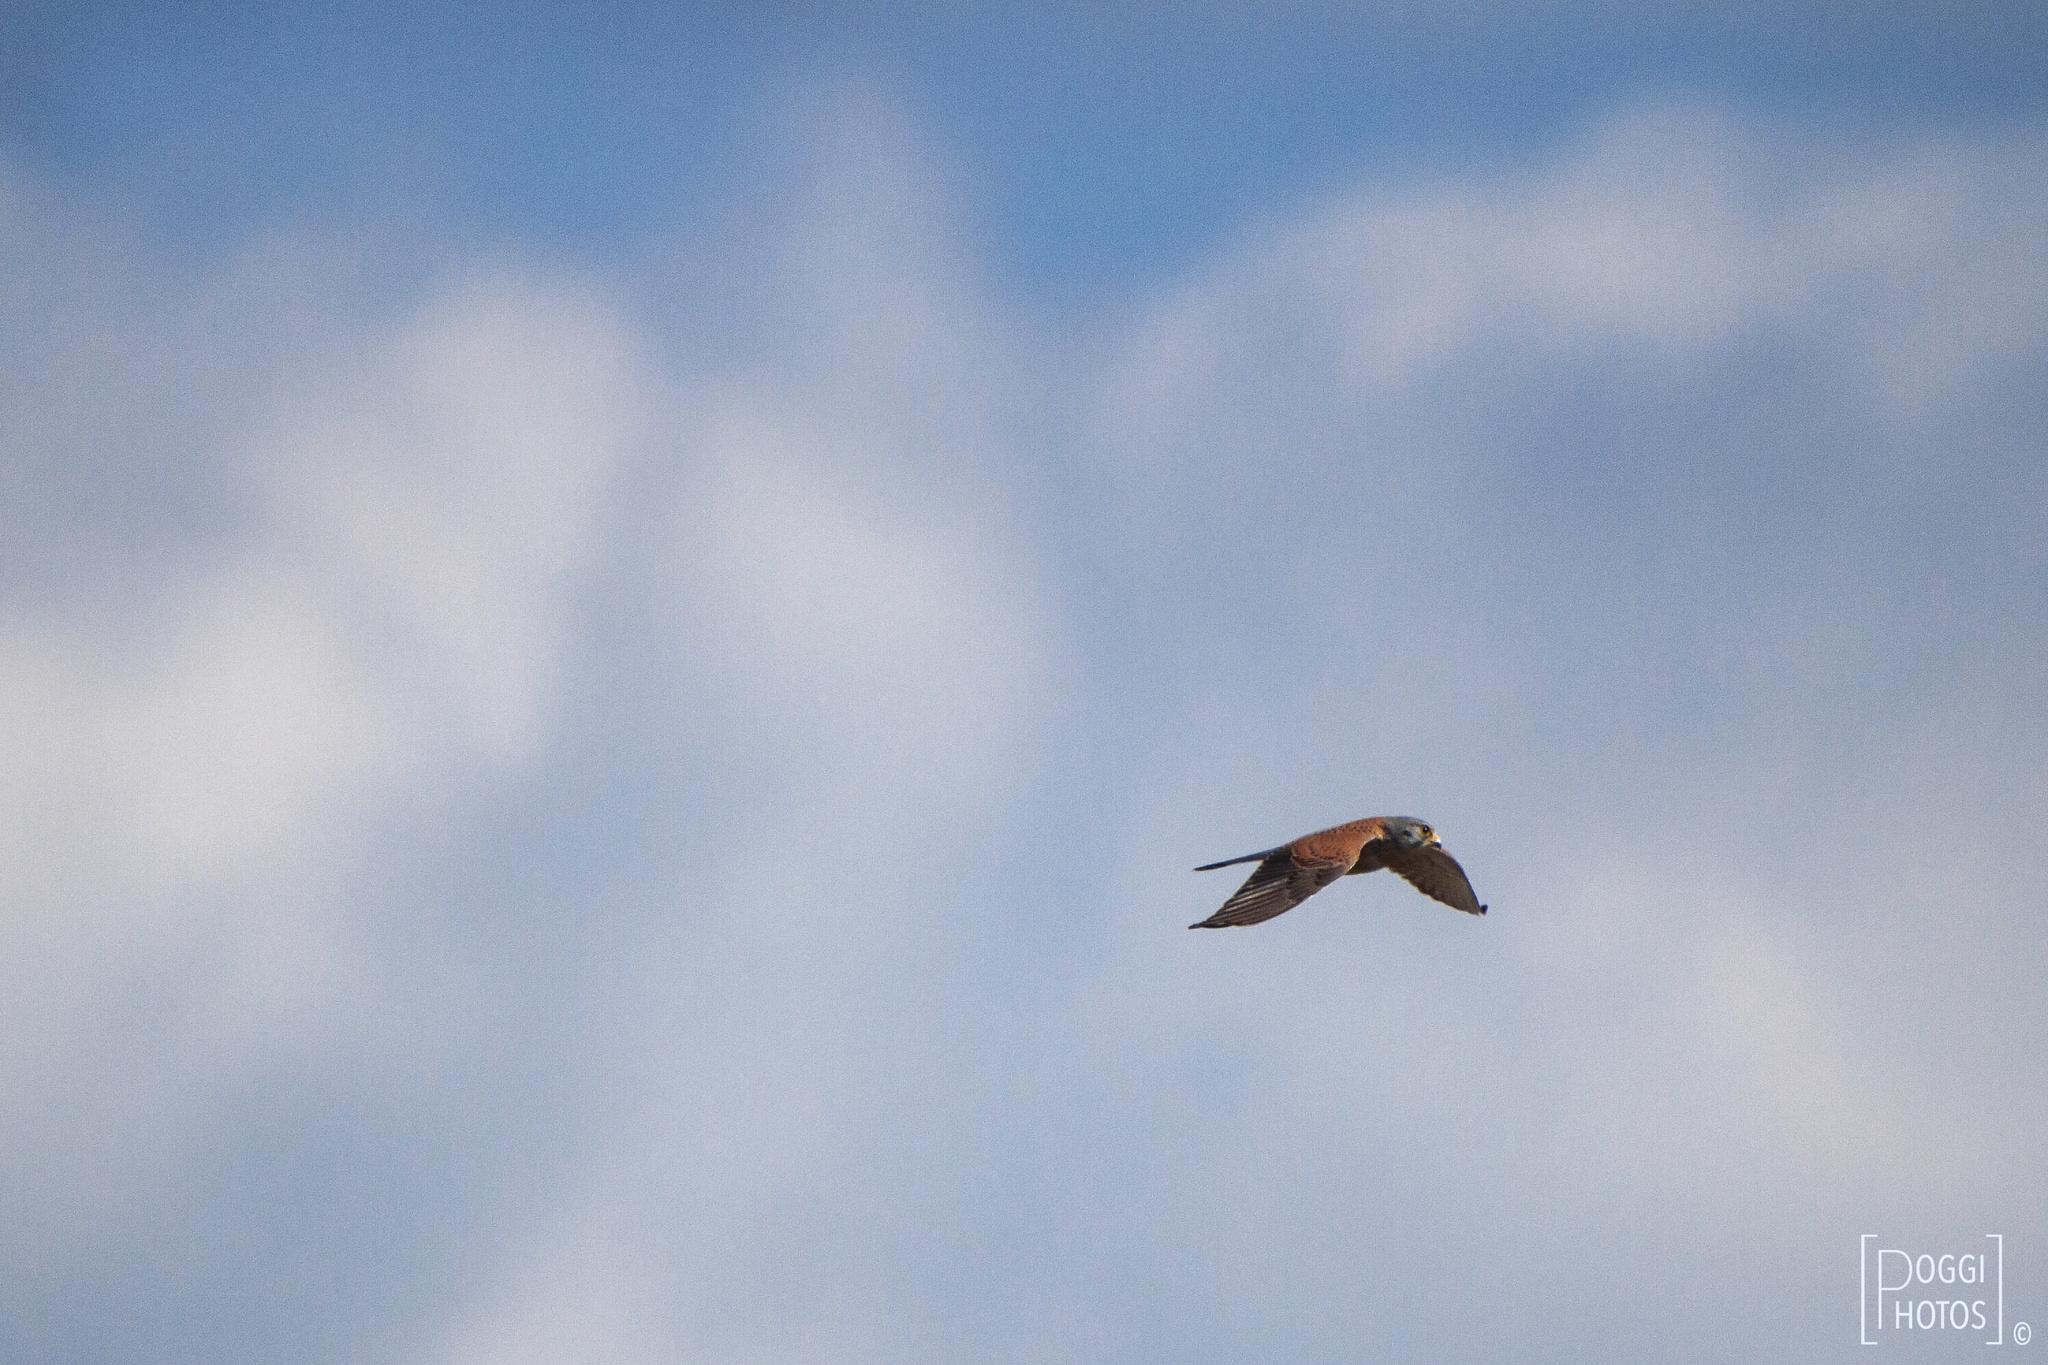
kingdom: Animalia
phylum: Chordata
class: Aves
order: Falconiformes
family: Falconidae
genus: Falco
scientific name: Falco tinnunculus
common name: Common kestrel
